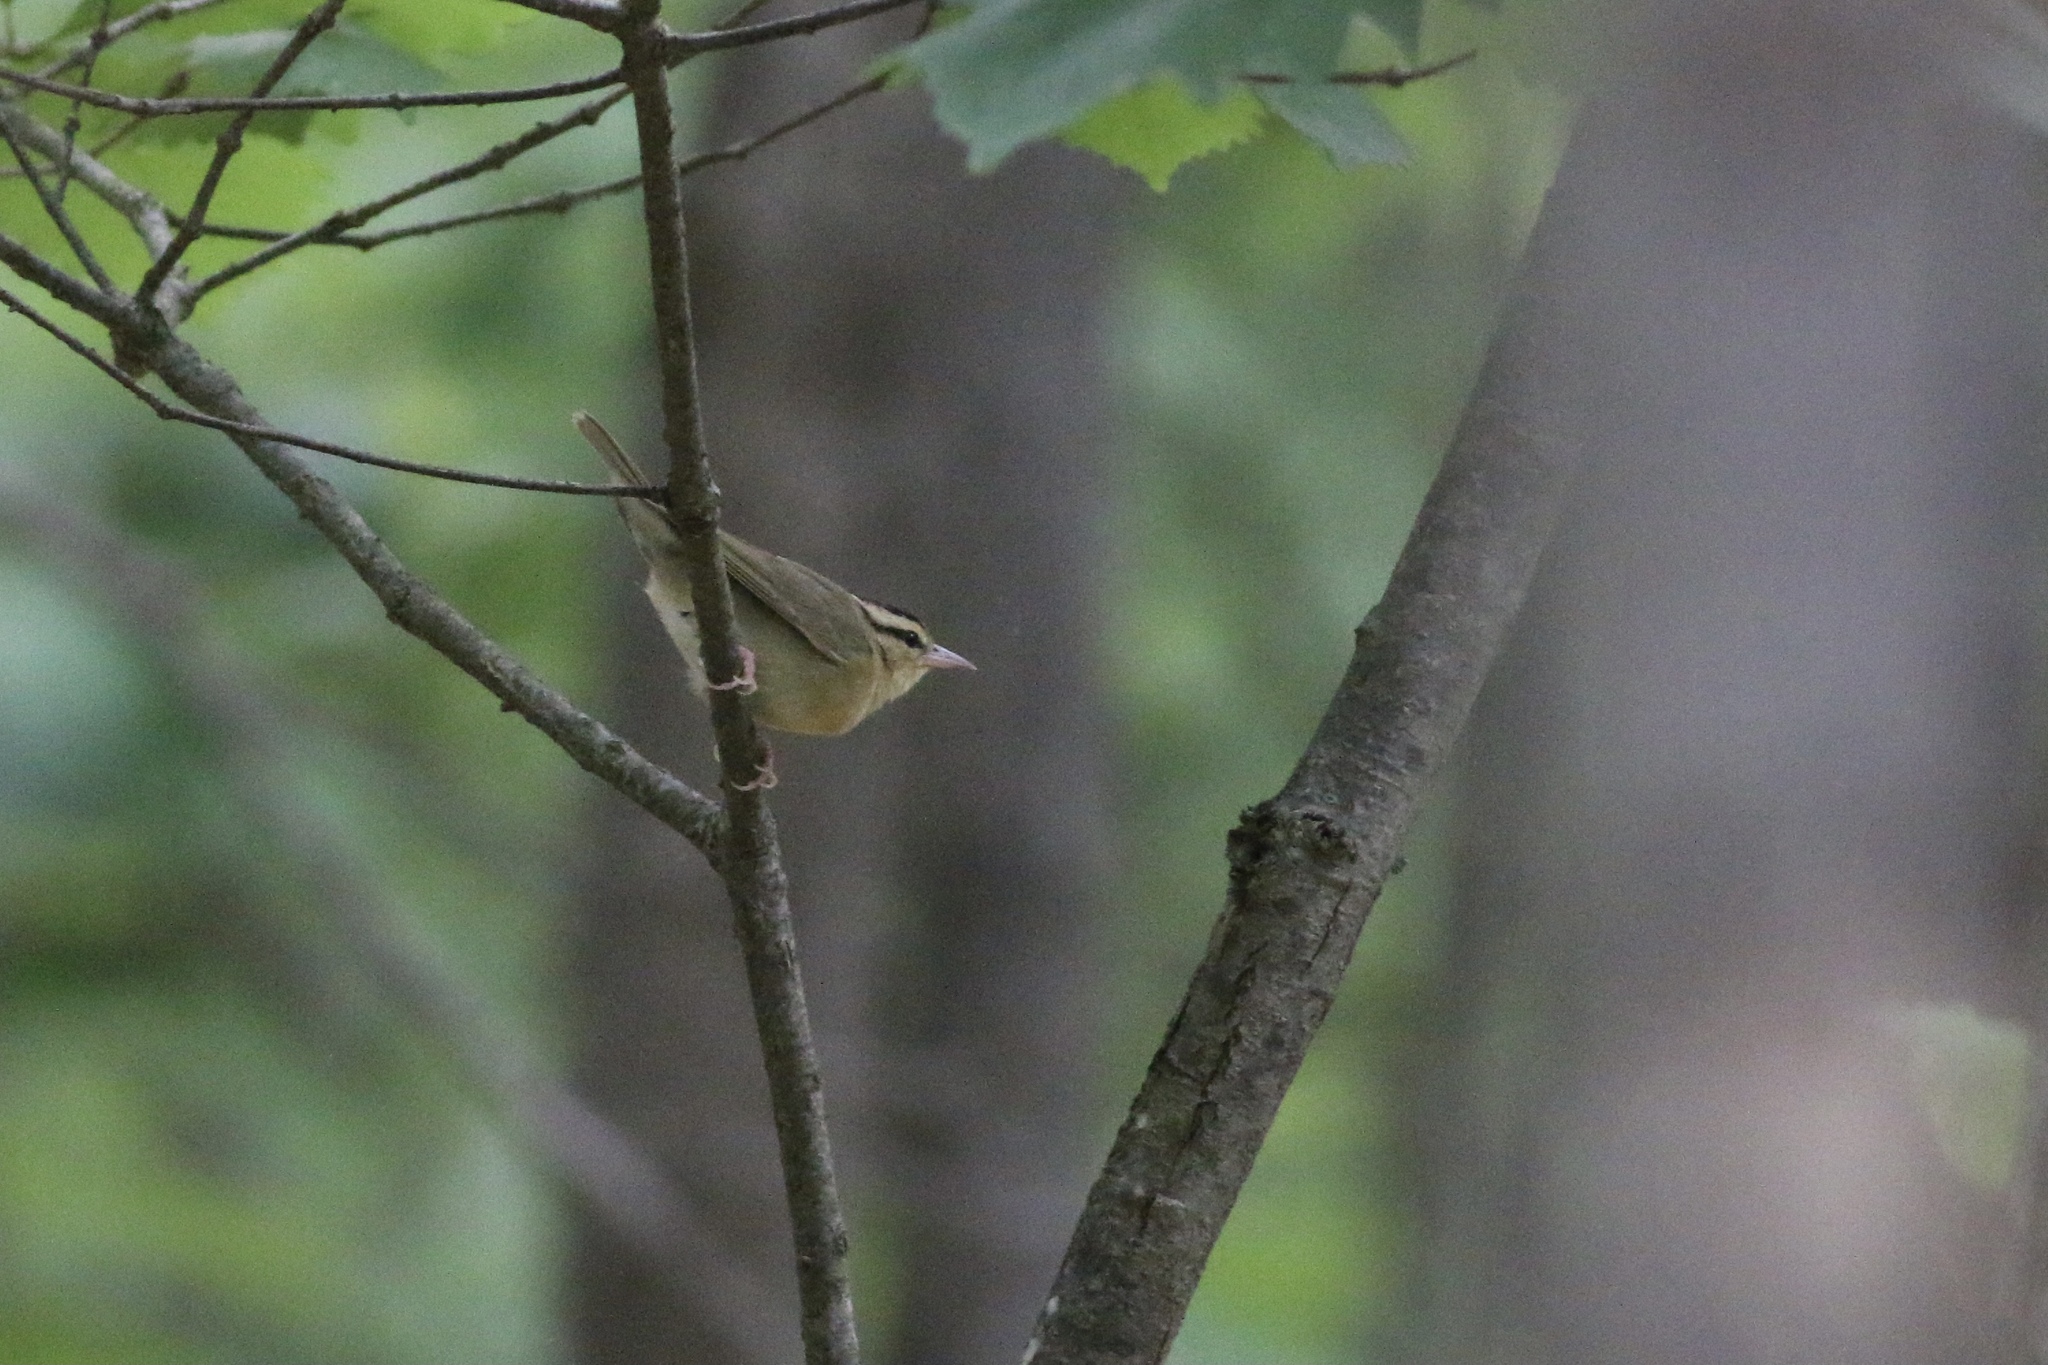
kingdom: Animalia
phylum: Chordata
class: Aves
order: Passeriformes
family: Parulidae
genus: Helmitheros
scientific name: Helmitheros vermivorum
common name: Worm-eating warbler
